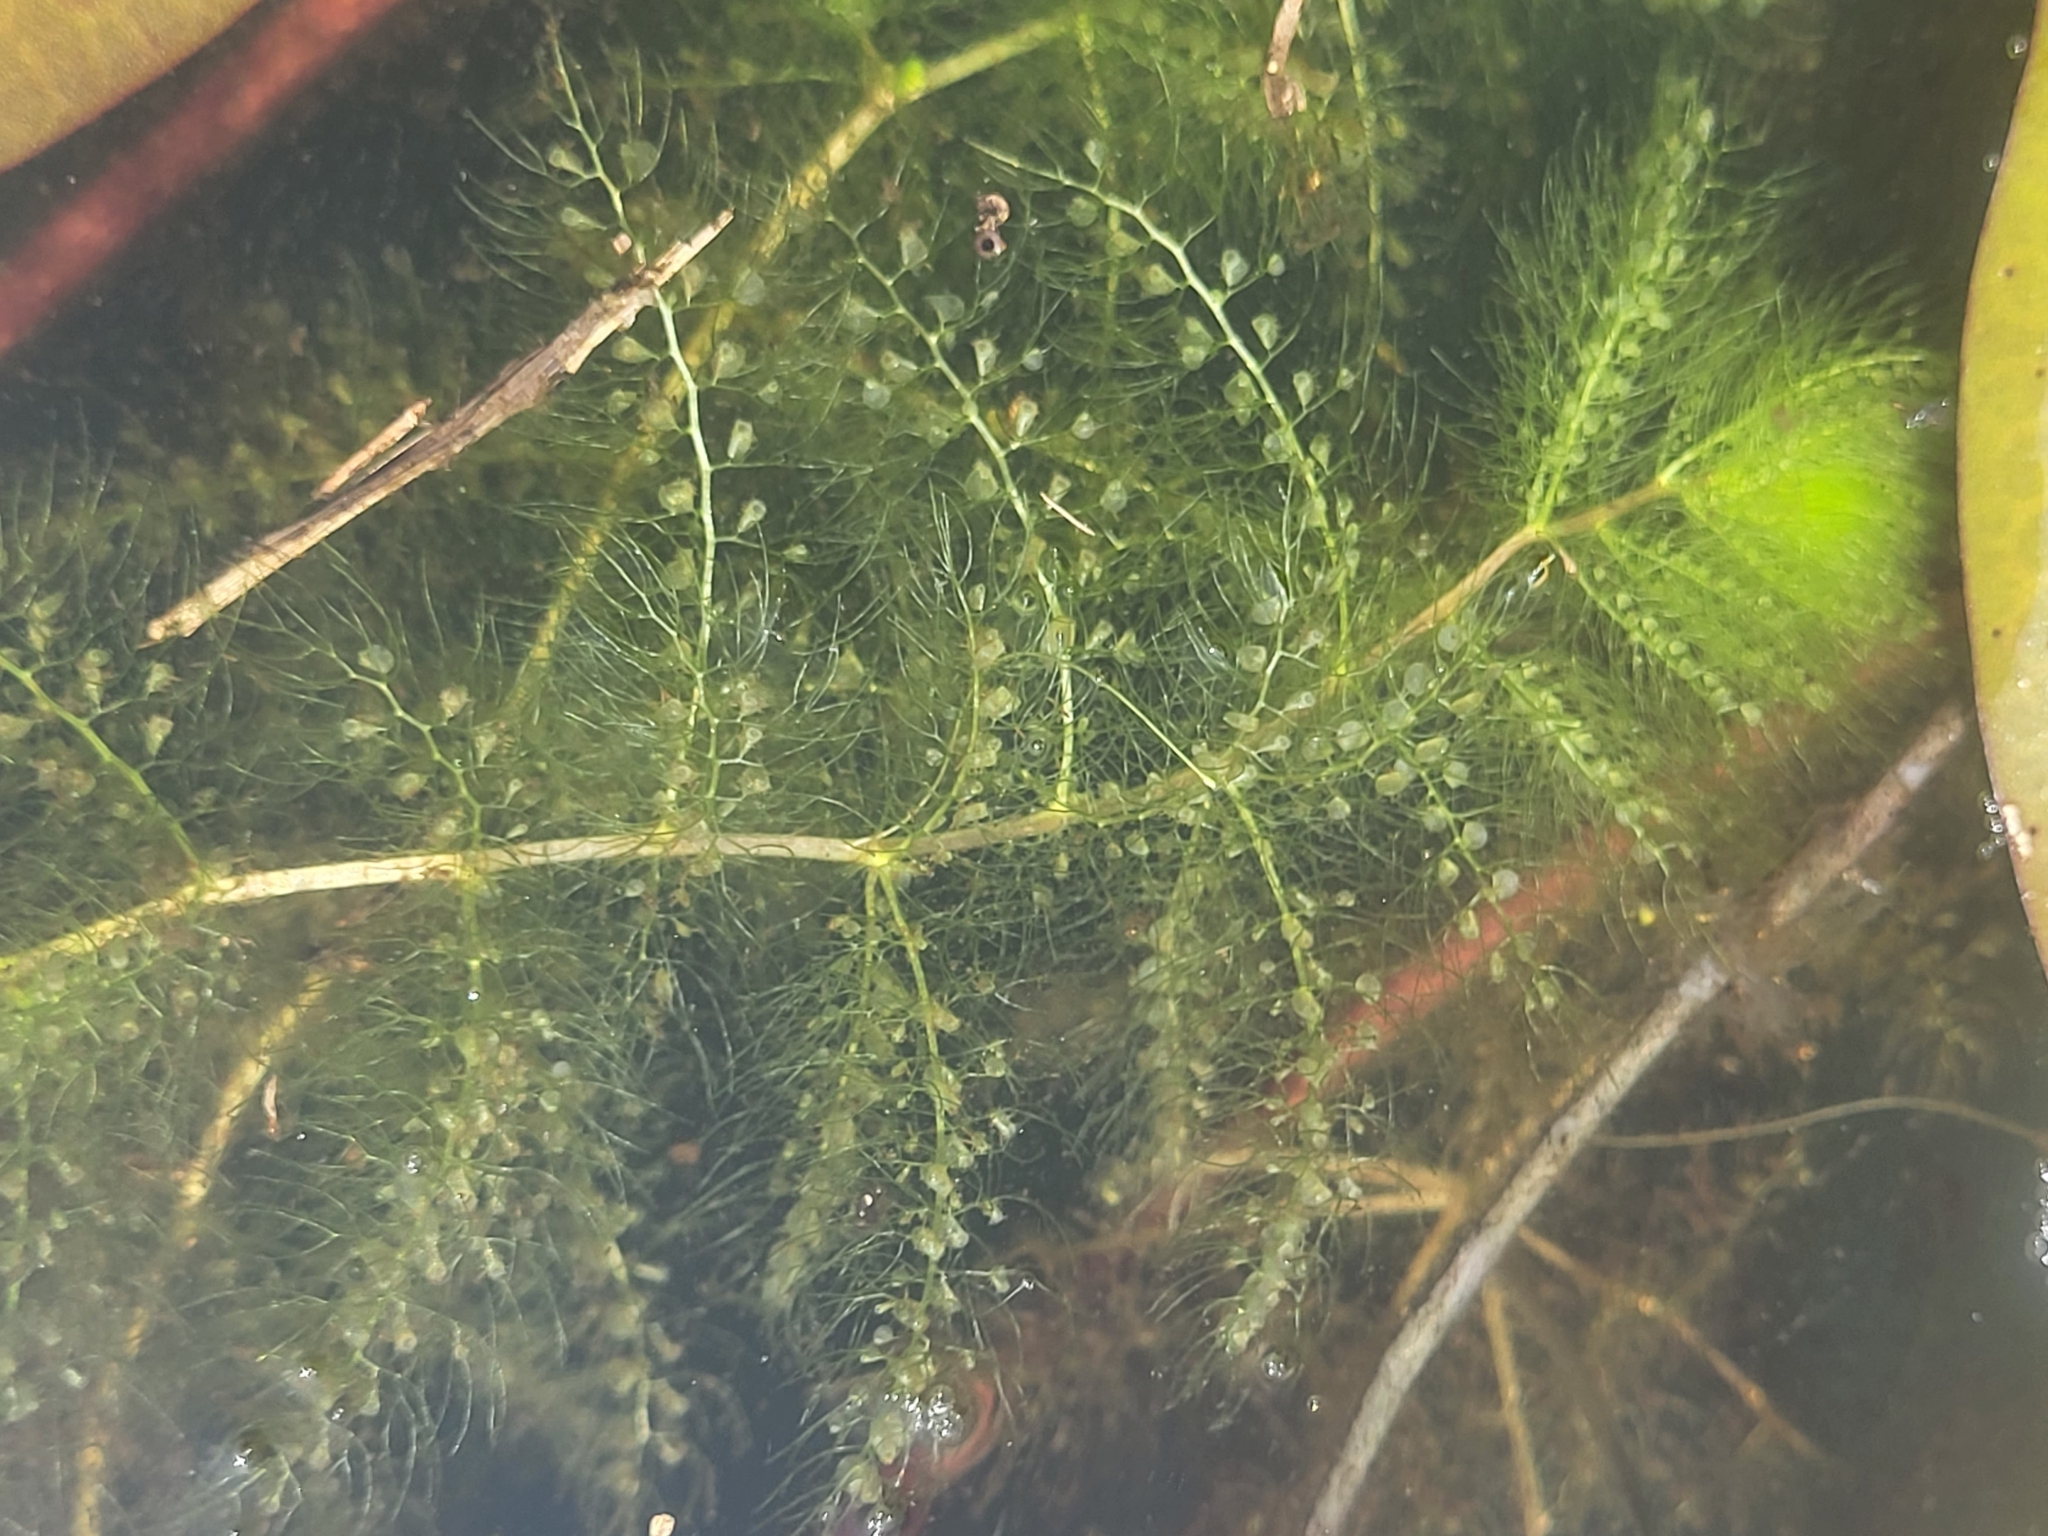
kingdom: Plantae
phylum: Tracheophyta
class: Magnoliopsida
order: Lamiales
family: Lentibulariaceae
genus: Utricularia
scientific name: Utricularia aurea
